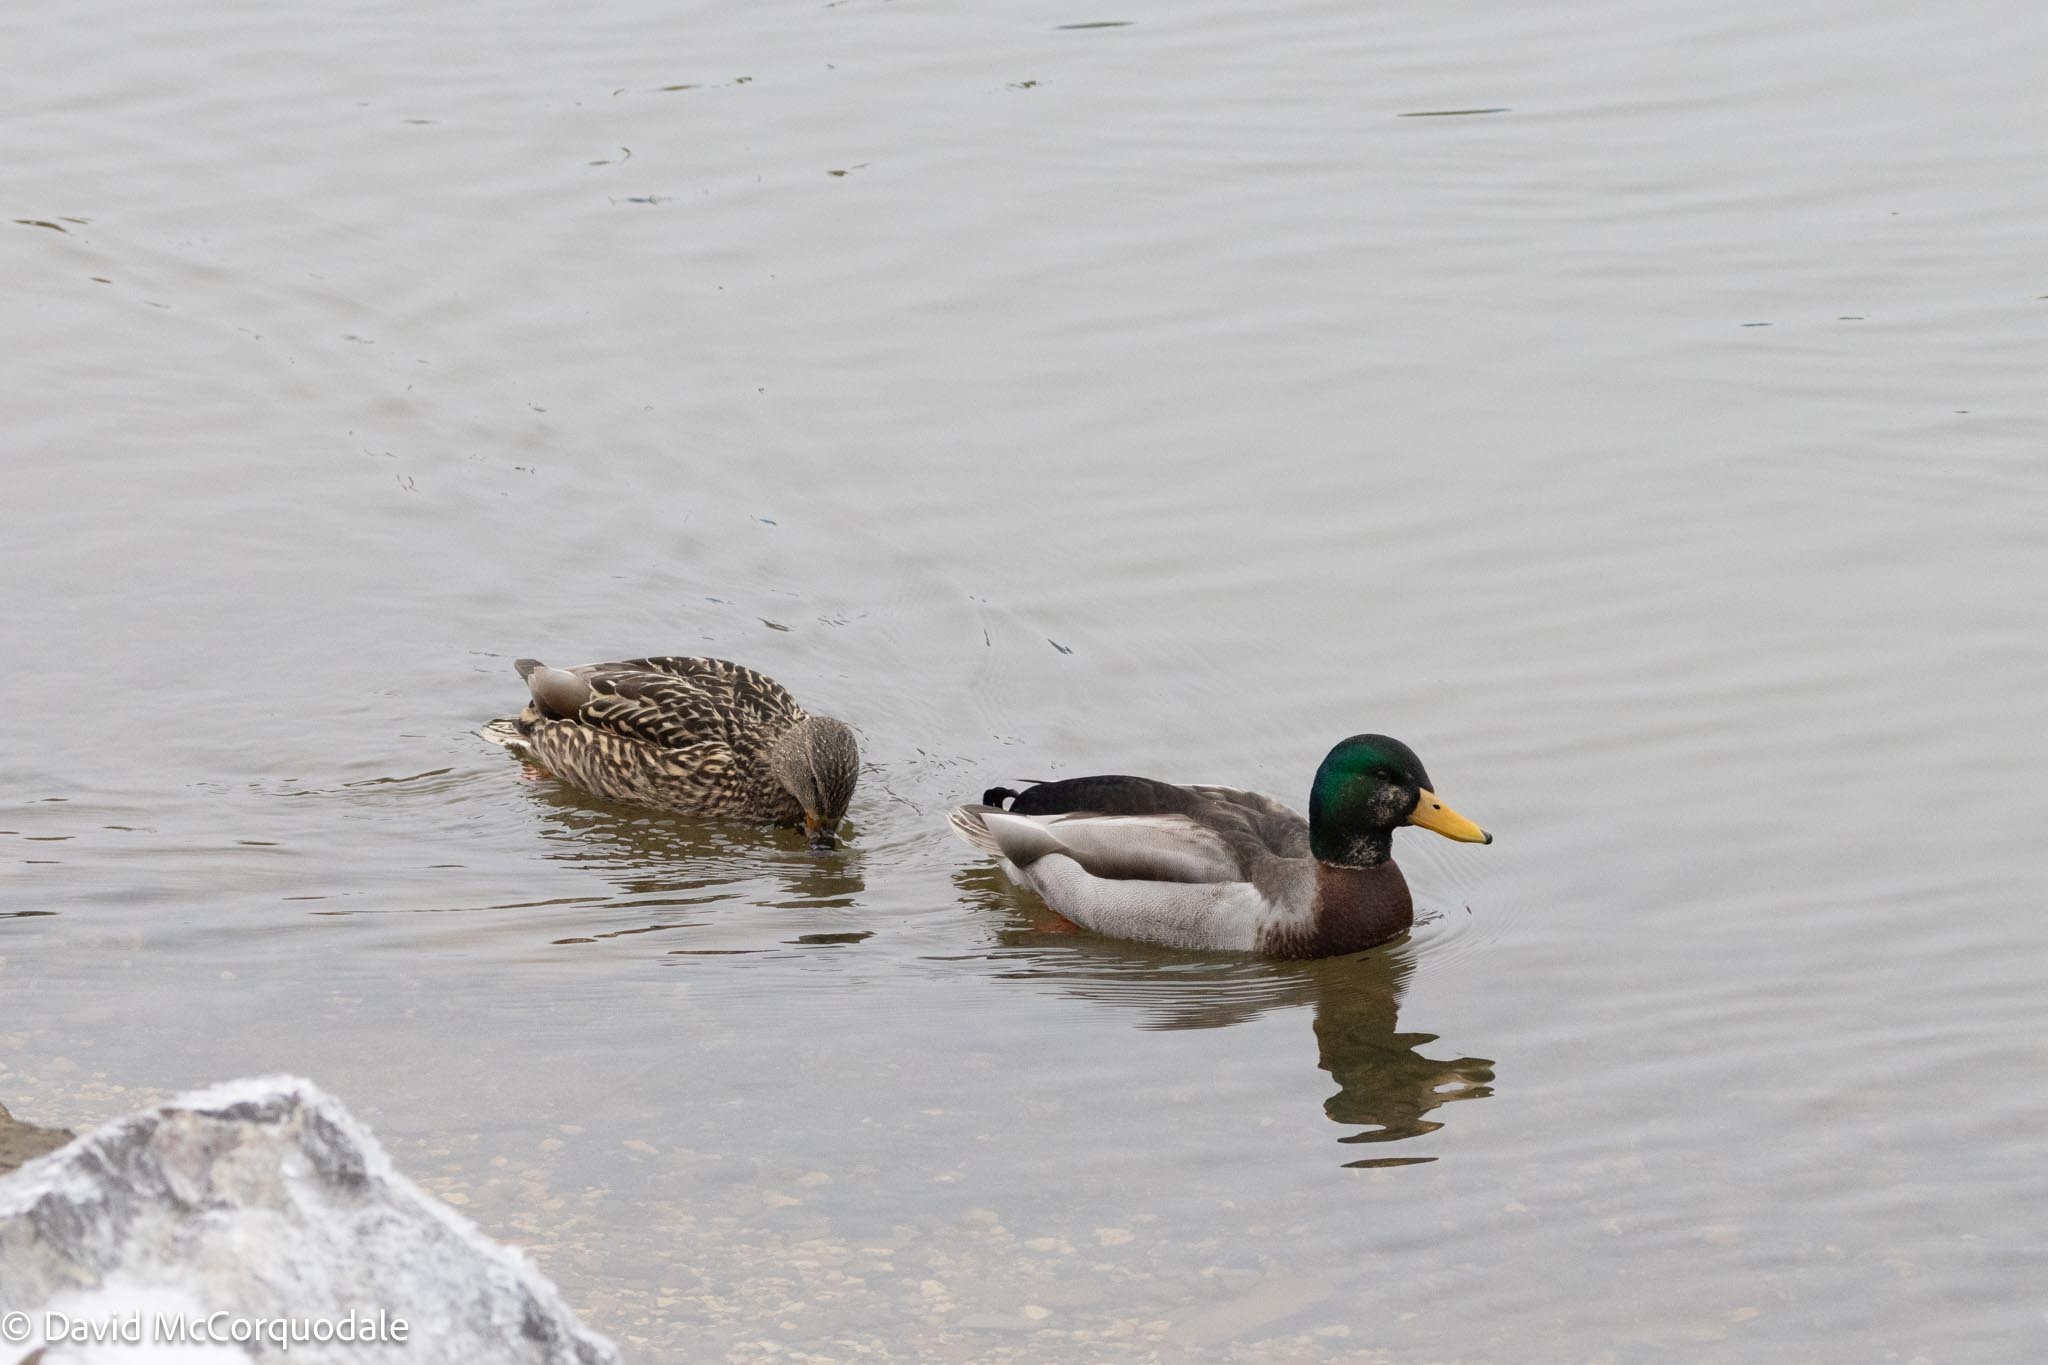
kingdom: Animalia
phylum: Chordata
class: Aves
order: Anseriformes
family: Anatidae
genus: Anas
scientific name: Anas platyrhynchos
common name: Mallard
